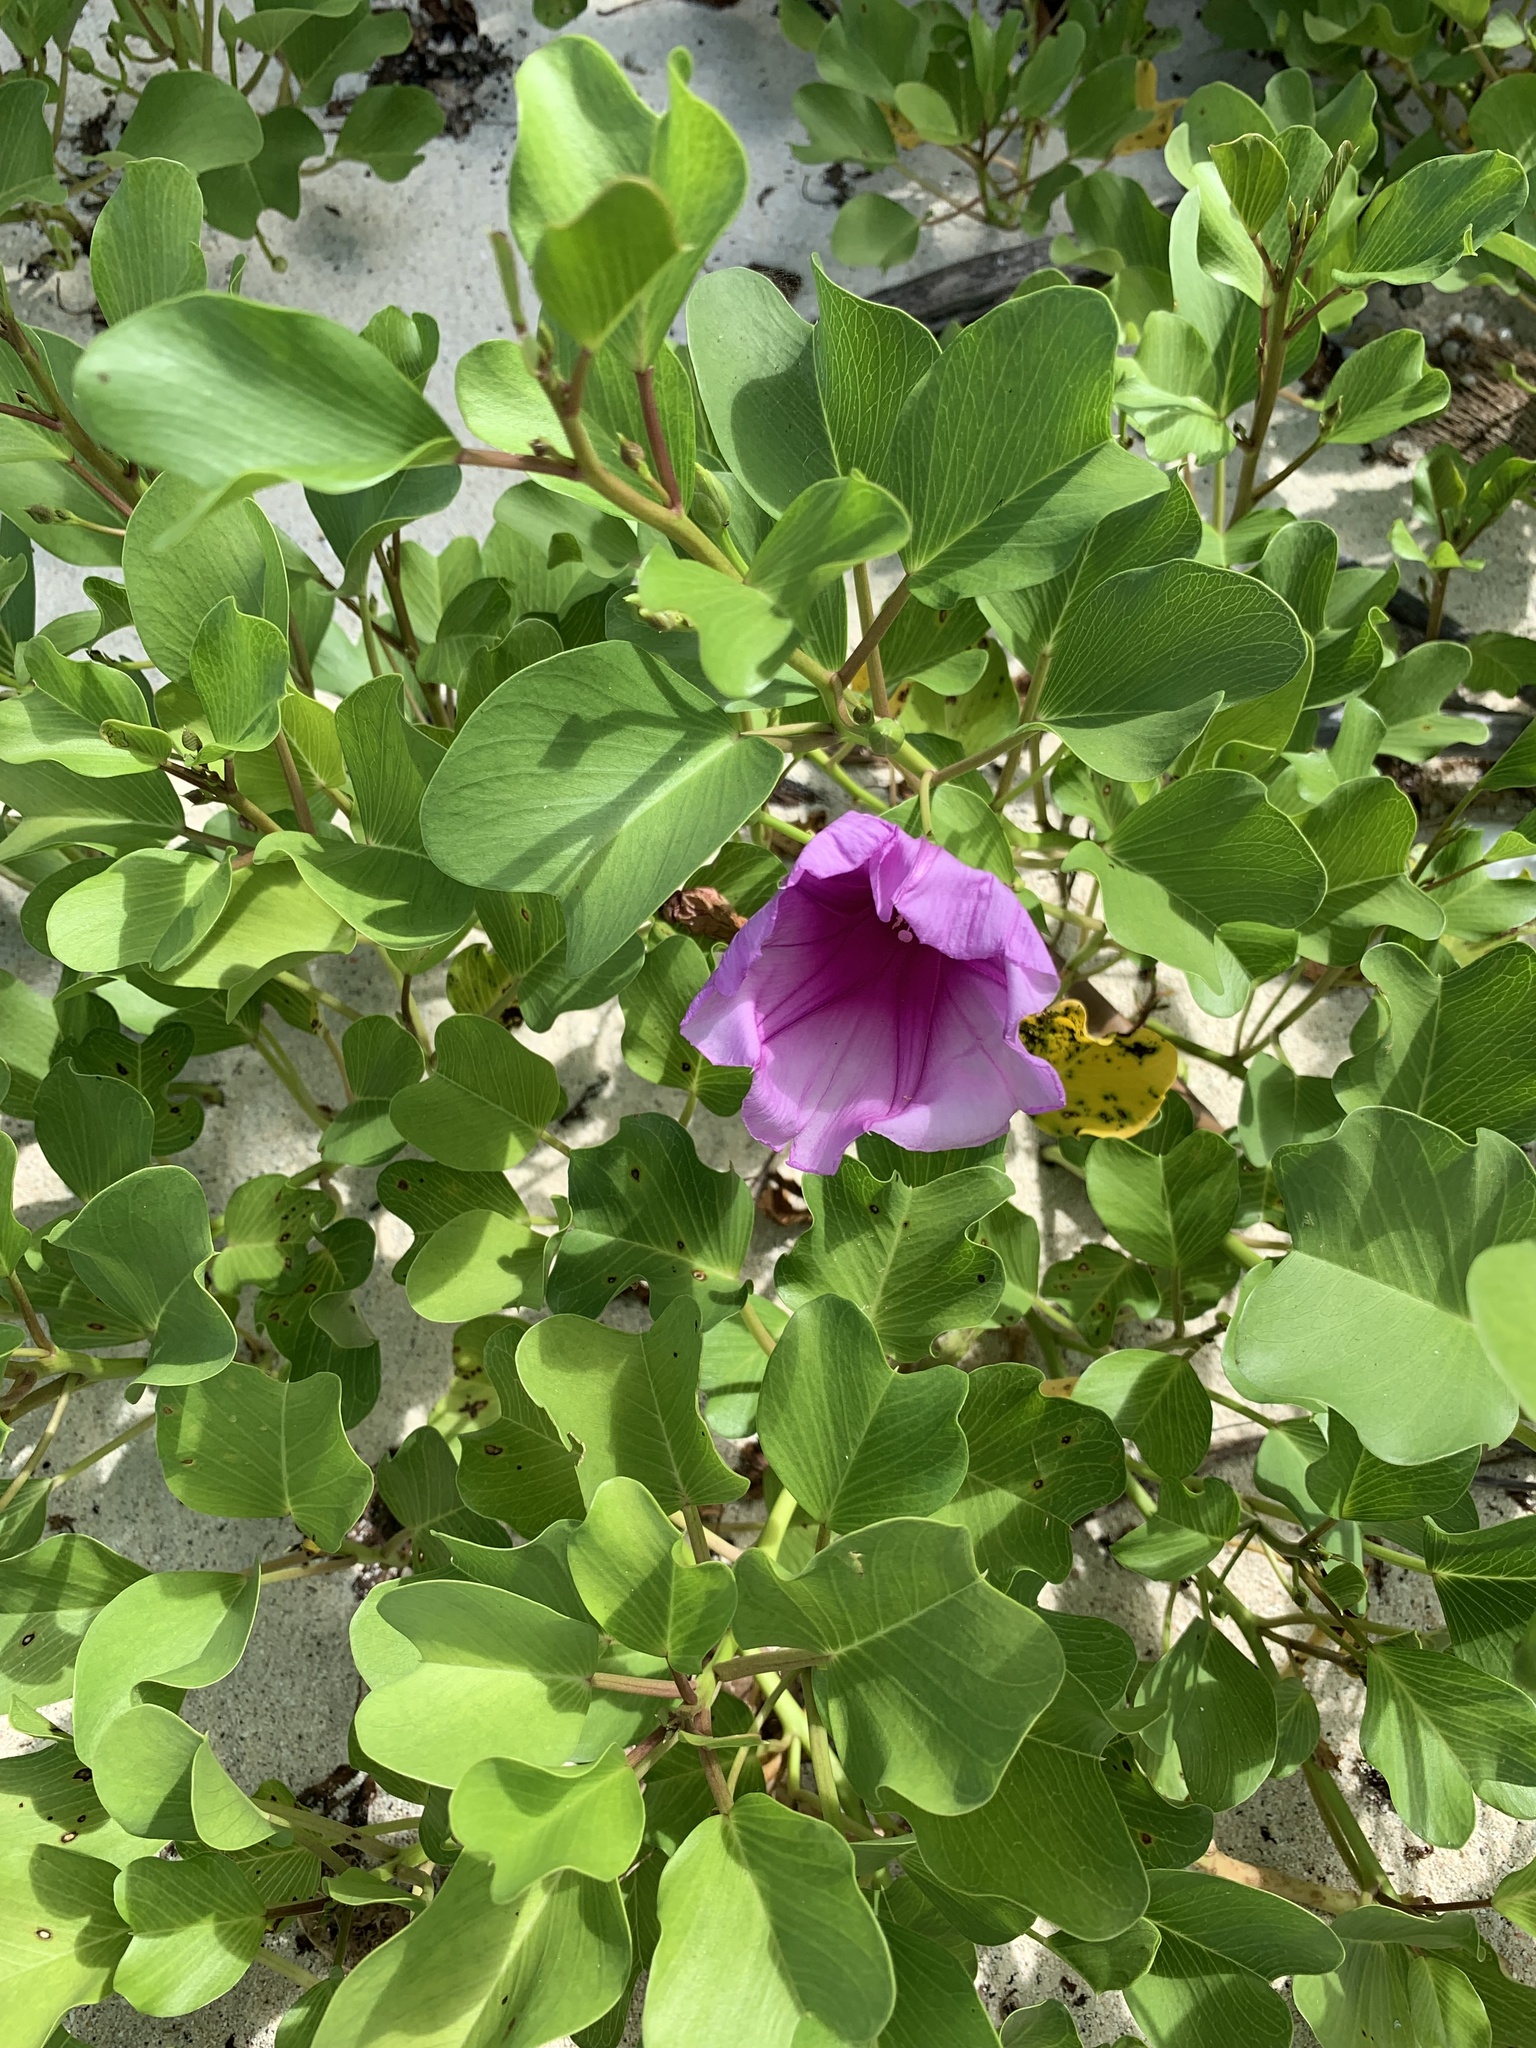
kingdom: Plantae
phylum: Tracheophyta
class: Magnoliopsida
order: Solanales
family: Convolvulaceae
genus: Ipomoea
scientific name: Ipomoea pes-caprae
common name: Beach morning glory
